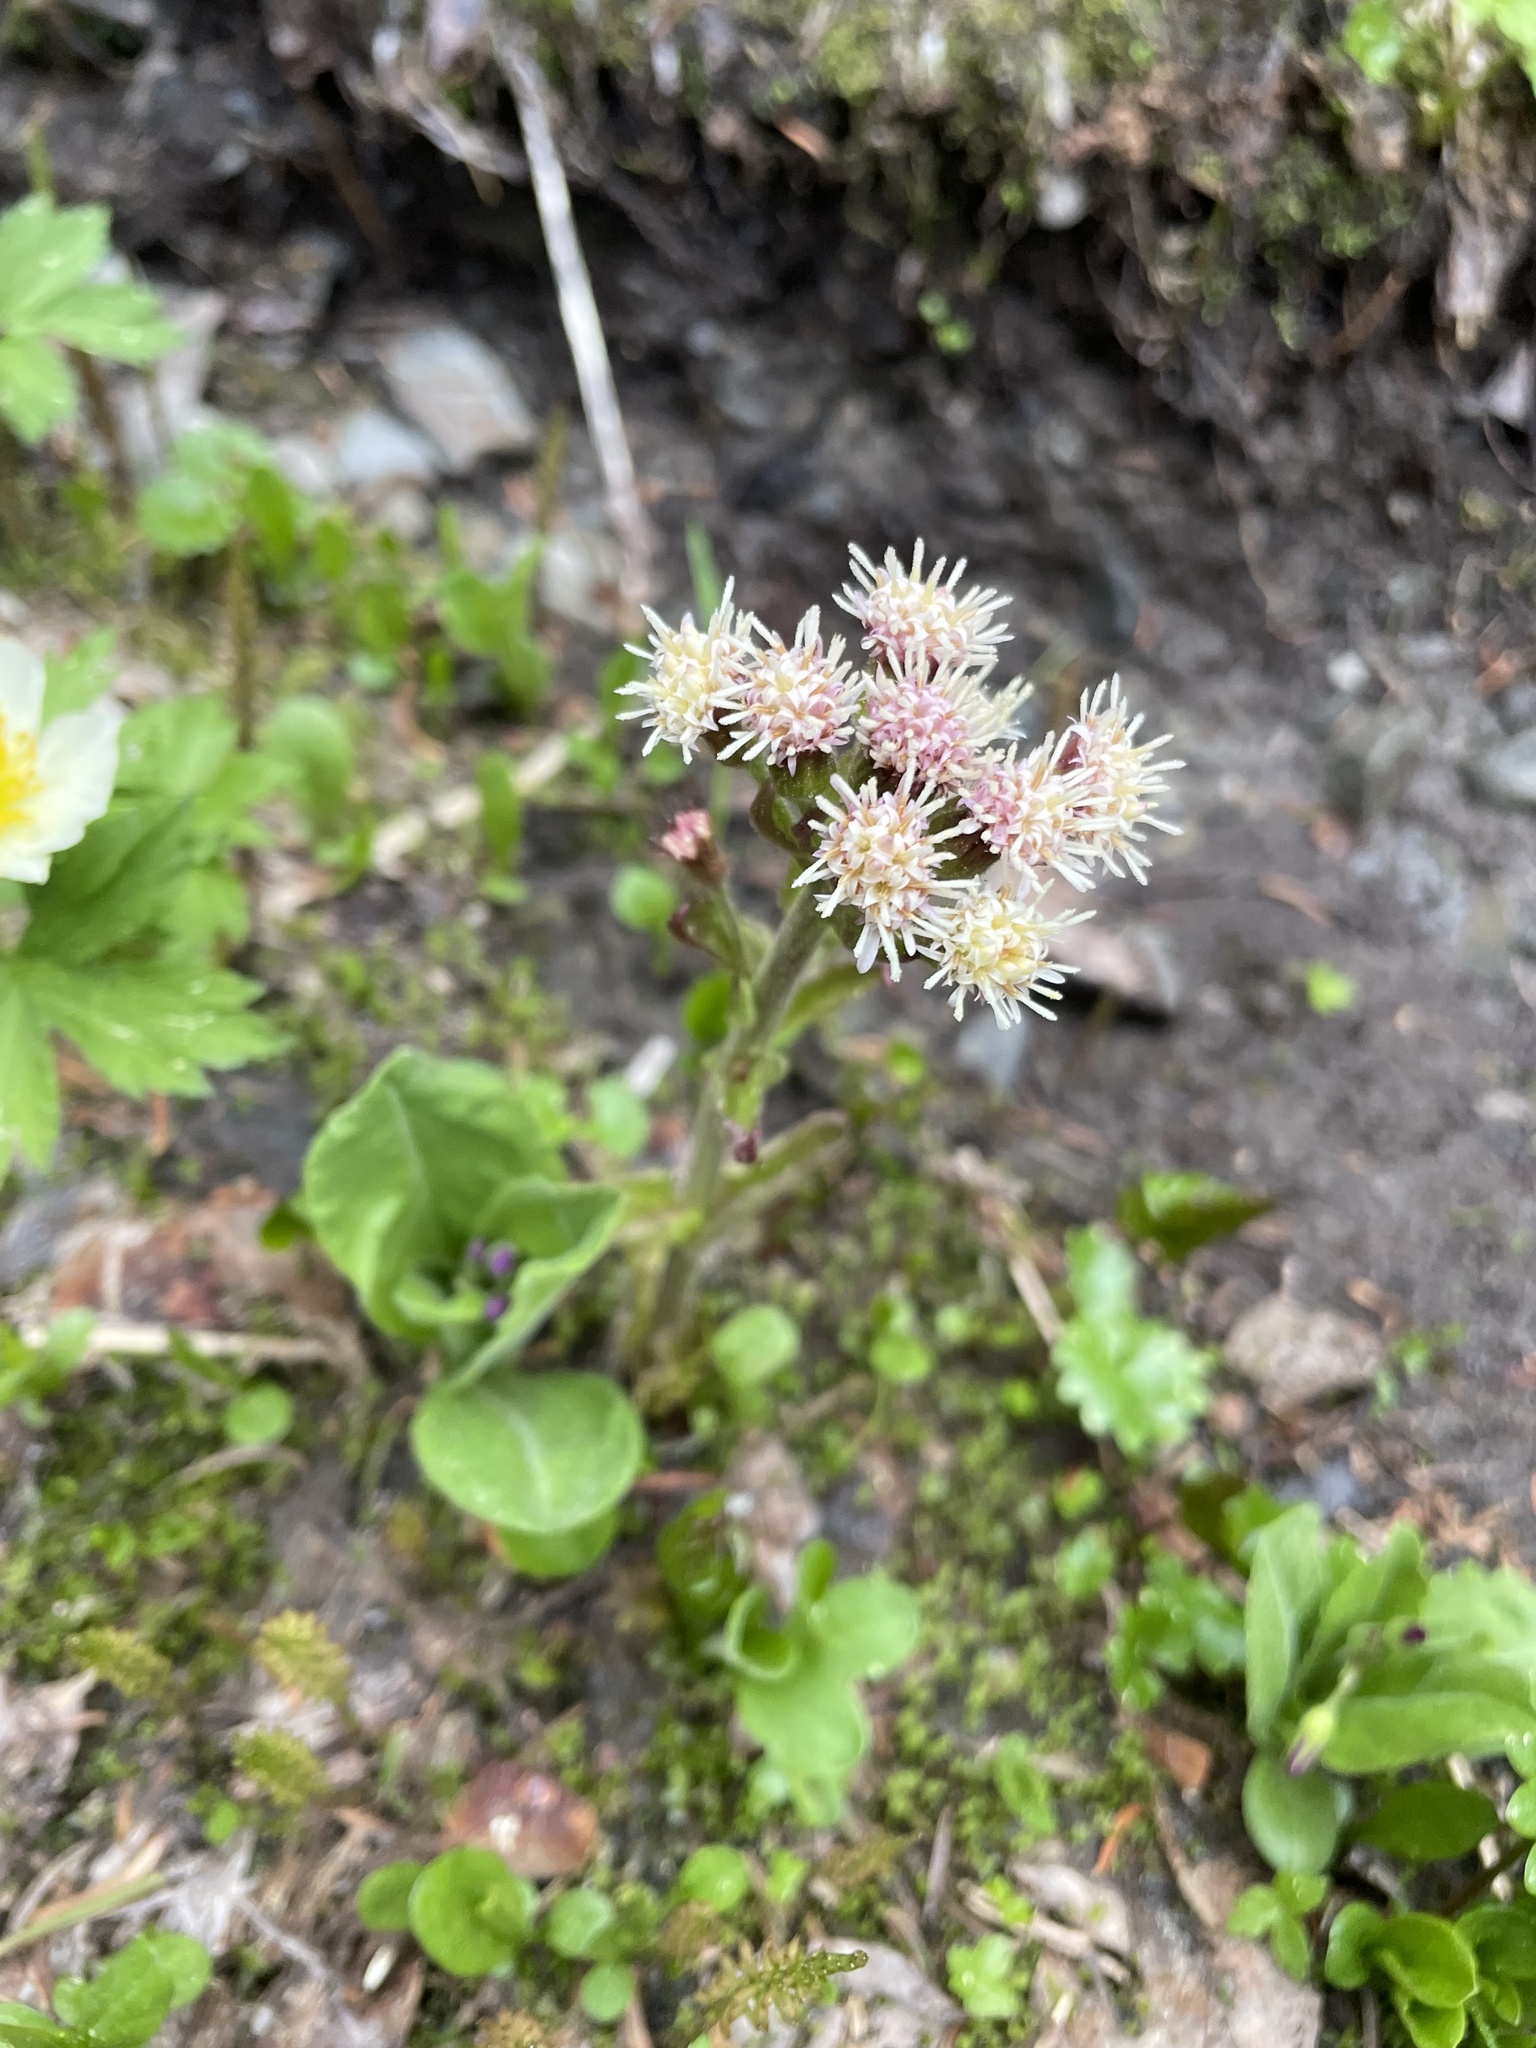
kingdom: Plantae
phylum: Tracheophyta
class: Magnoliopsida
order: Asterales
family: Asteraceae
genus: Petasites
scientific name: Petasites frigidus
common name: Arctic butterbur
